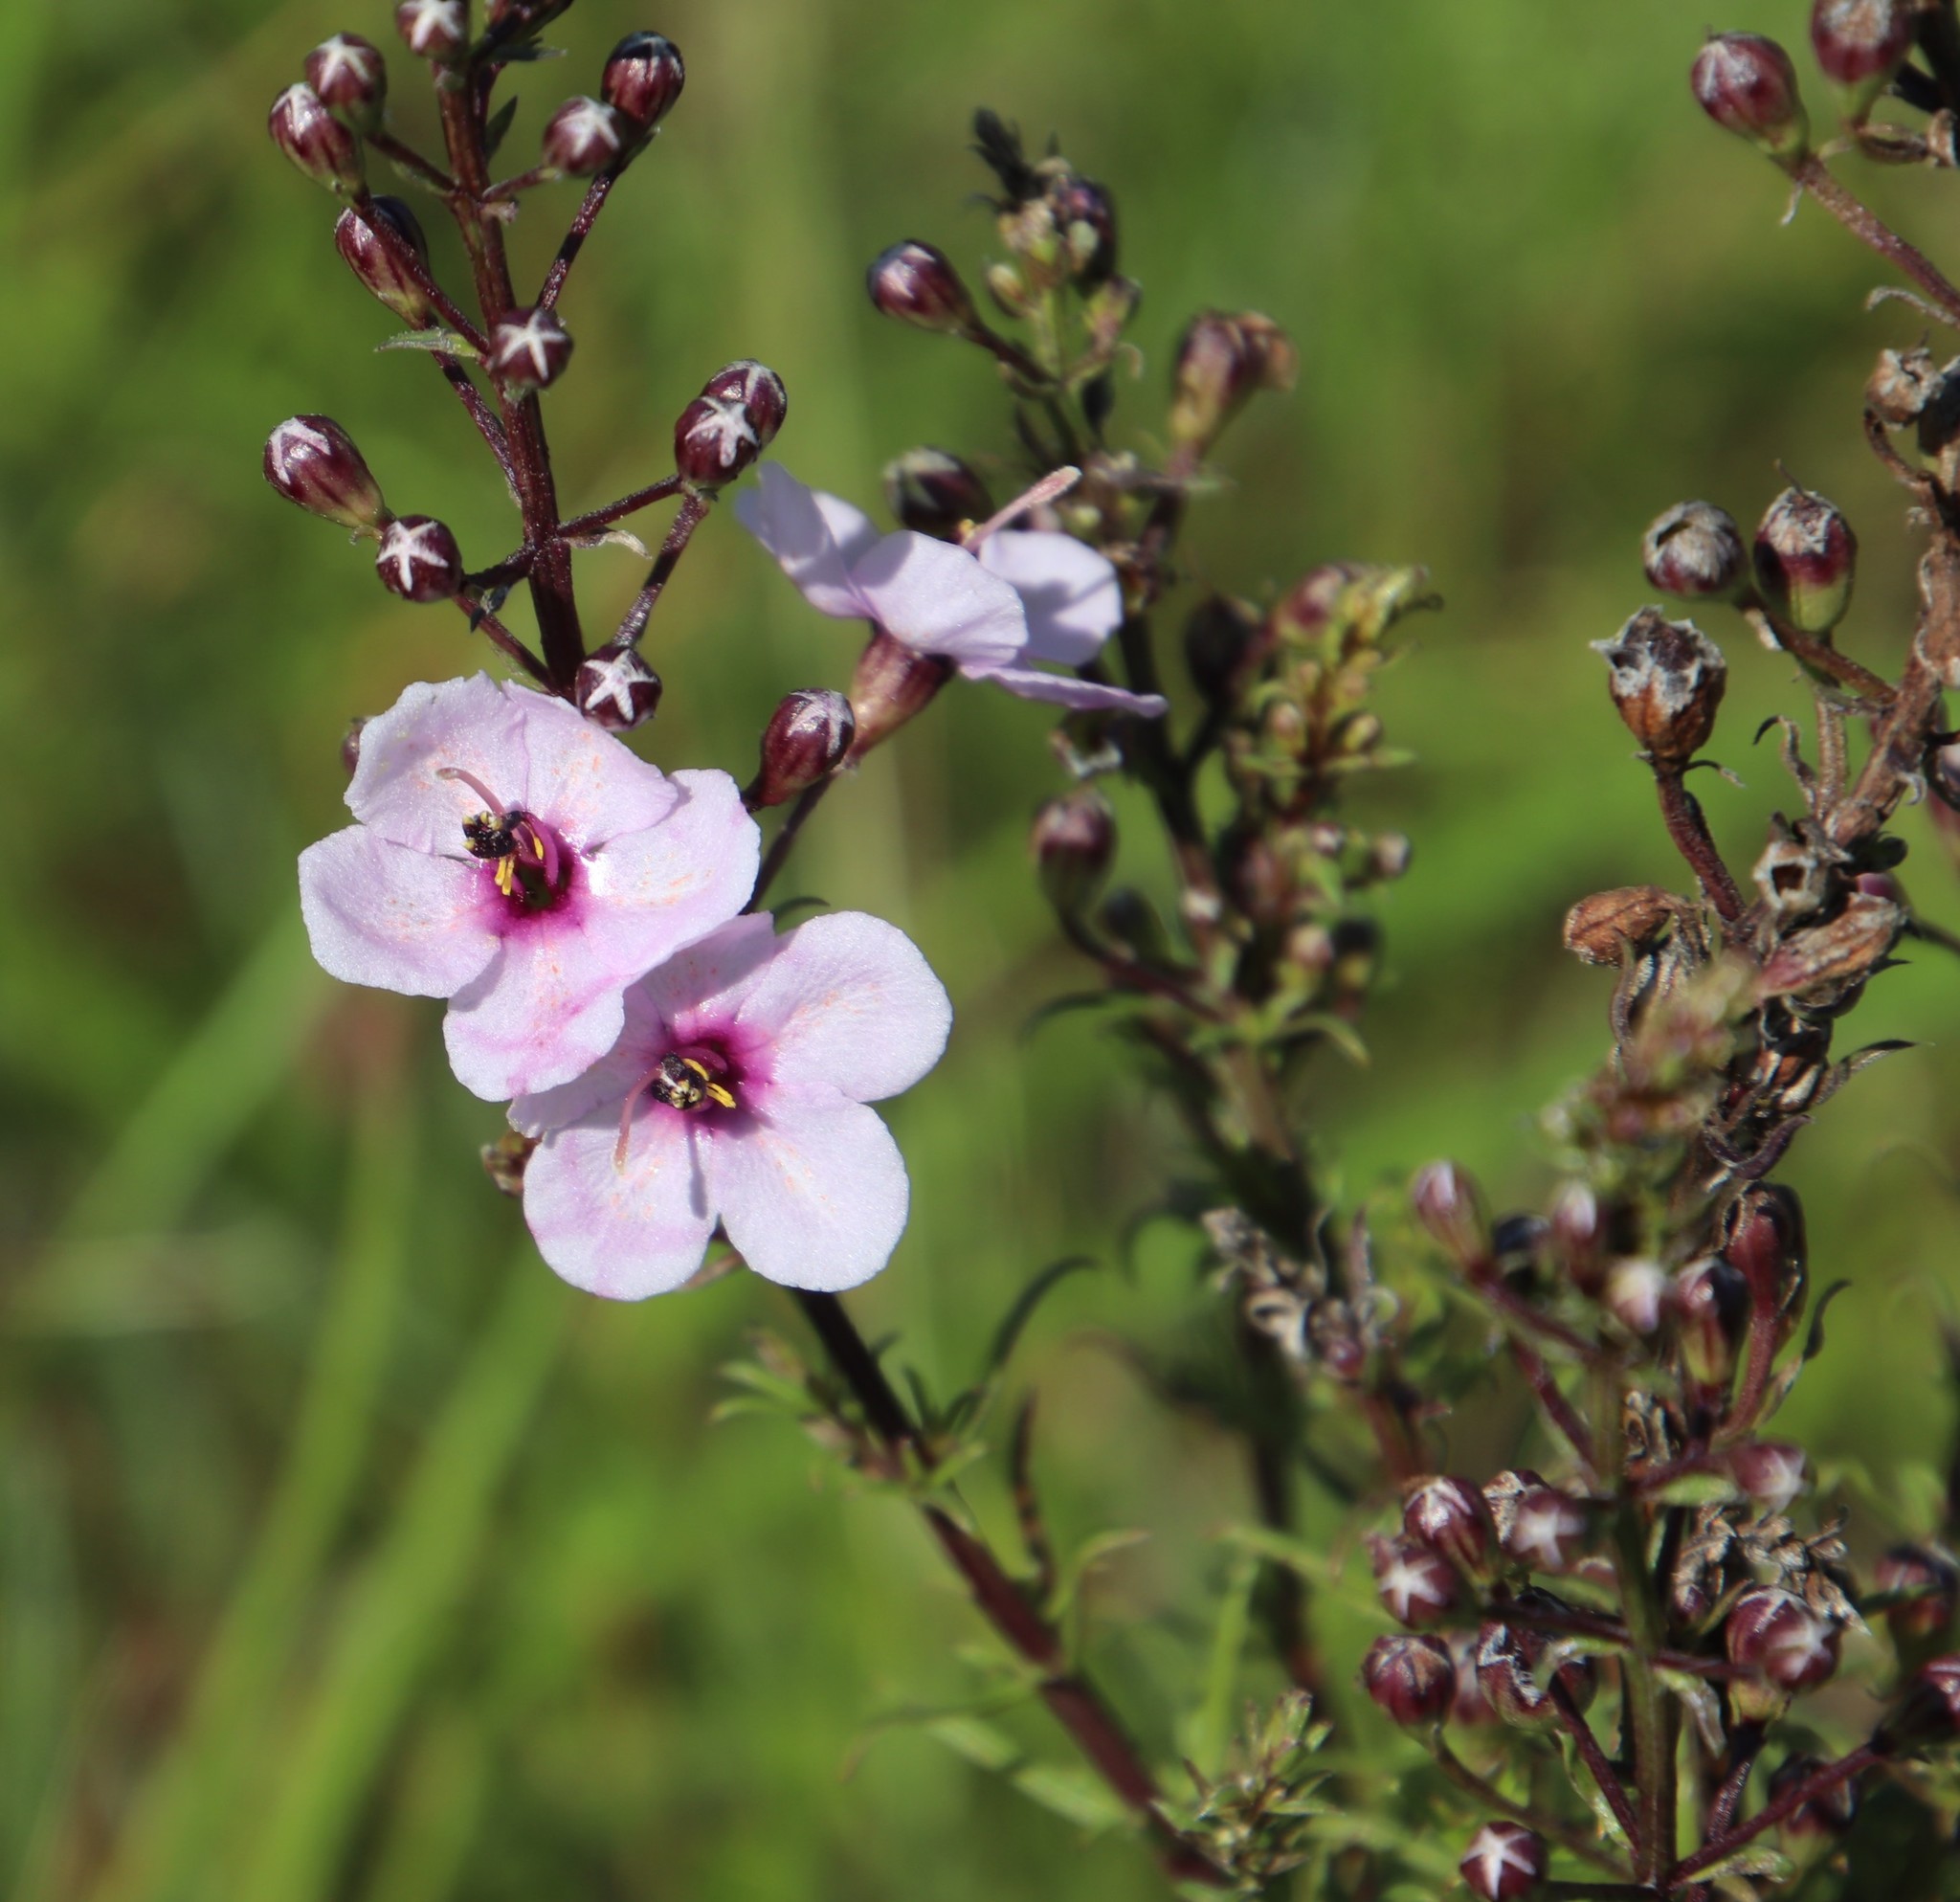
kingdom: Plantae
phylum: Tracheophyta
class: Magnoliopsida
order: Lamiales
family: Orobanchaceae
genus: Sopubia
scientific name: Sopubia simplex
